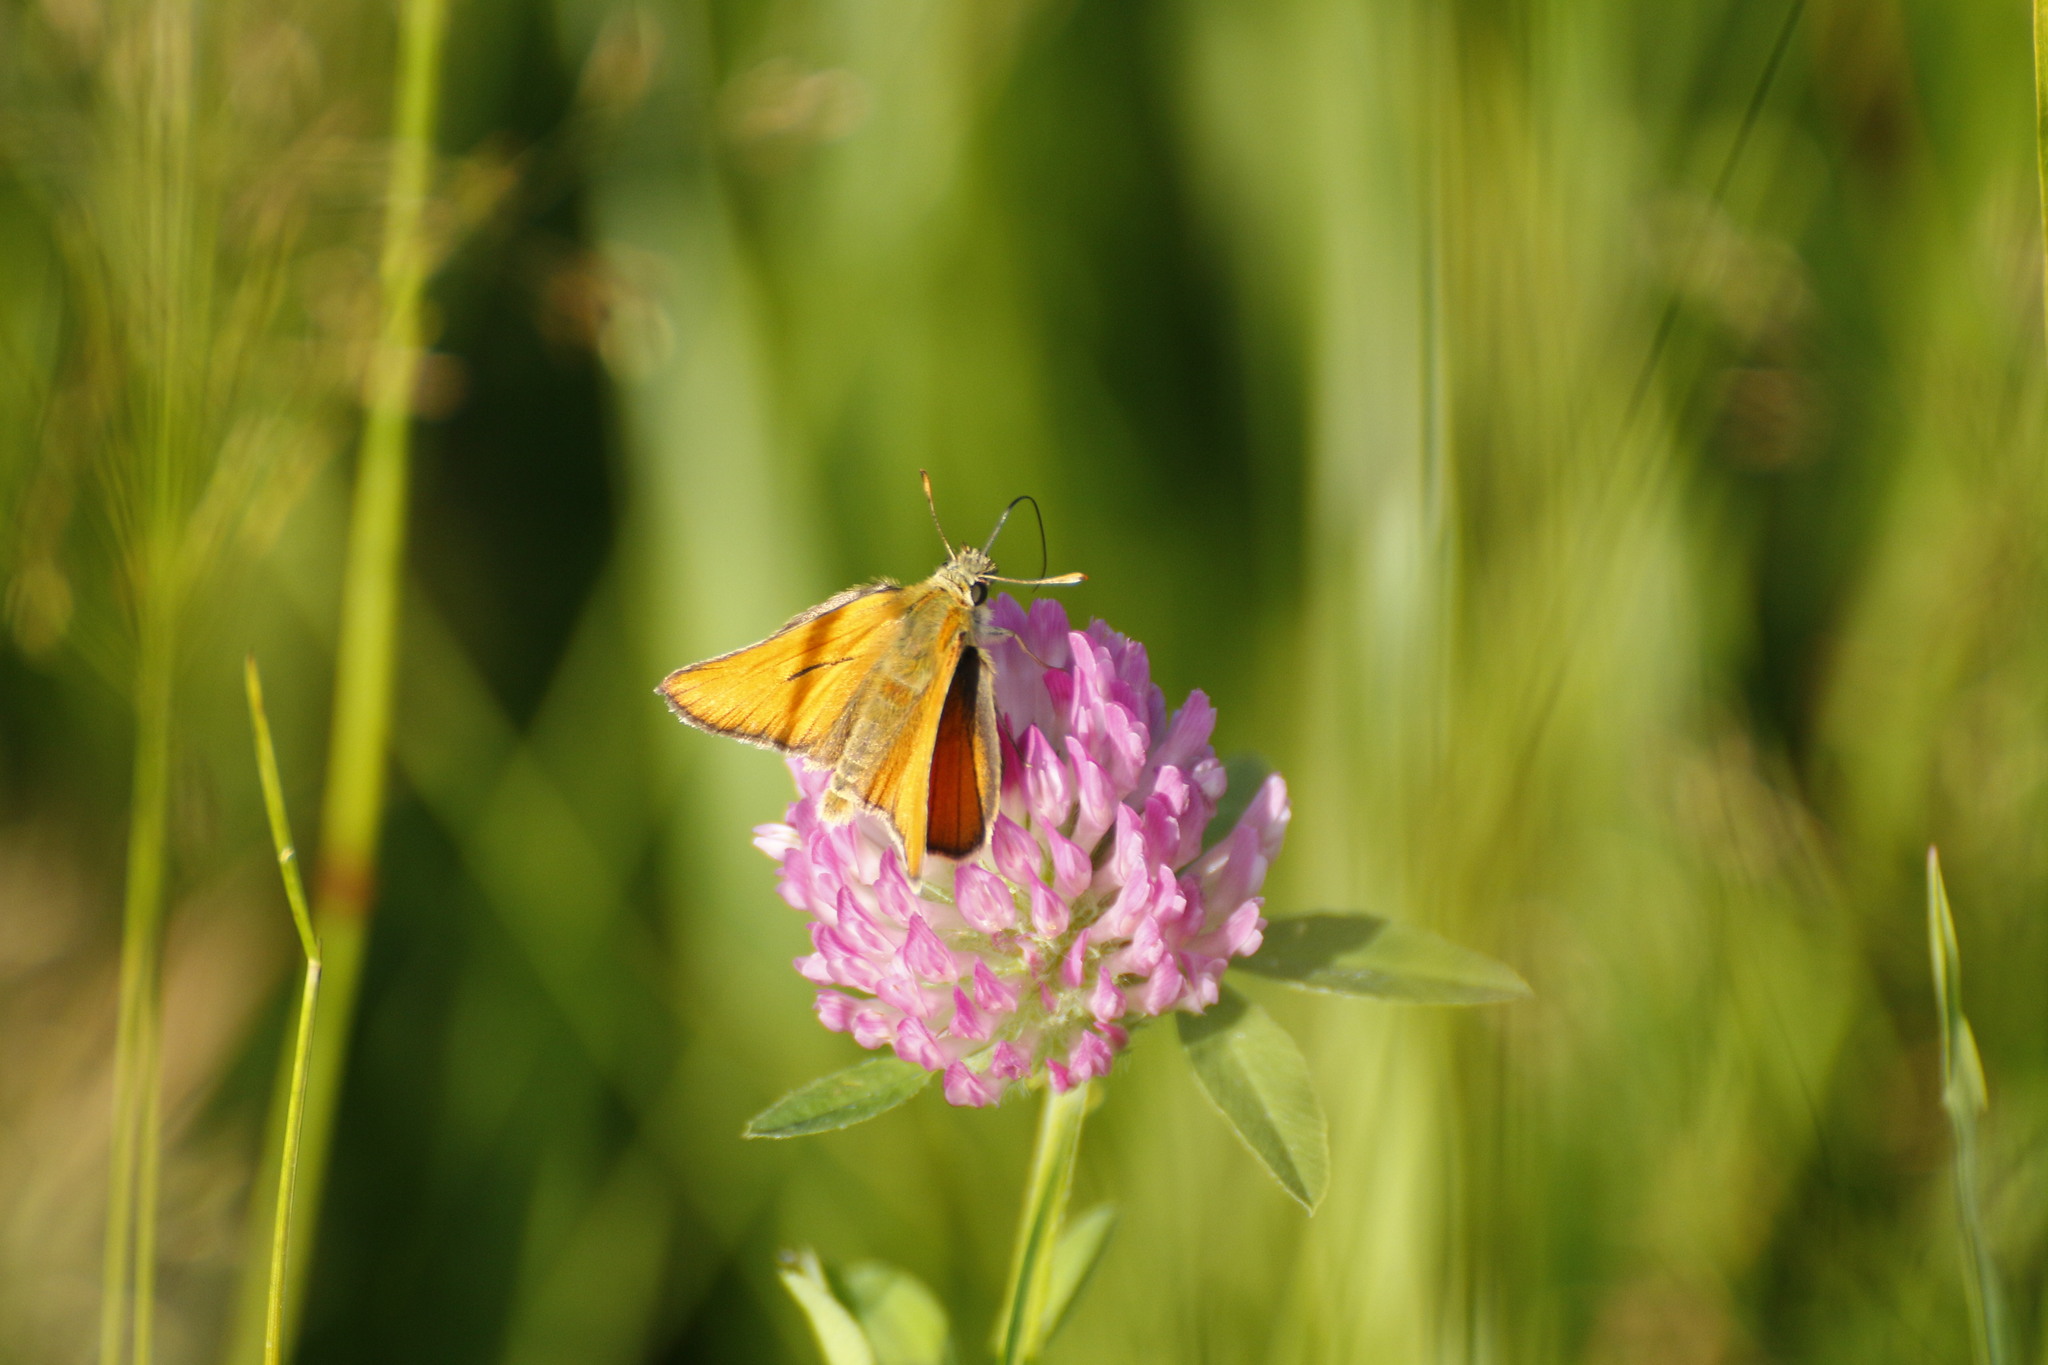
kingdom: Animalia
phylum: Arthropoda
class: Insecta
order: Lepidoptera
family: Hesperiidae
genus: Thymelicus
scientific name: Thymelicus sylvestris
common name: Small skipper
